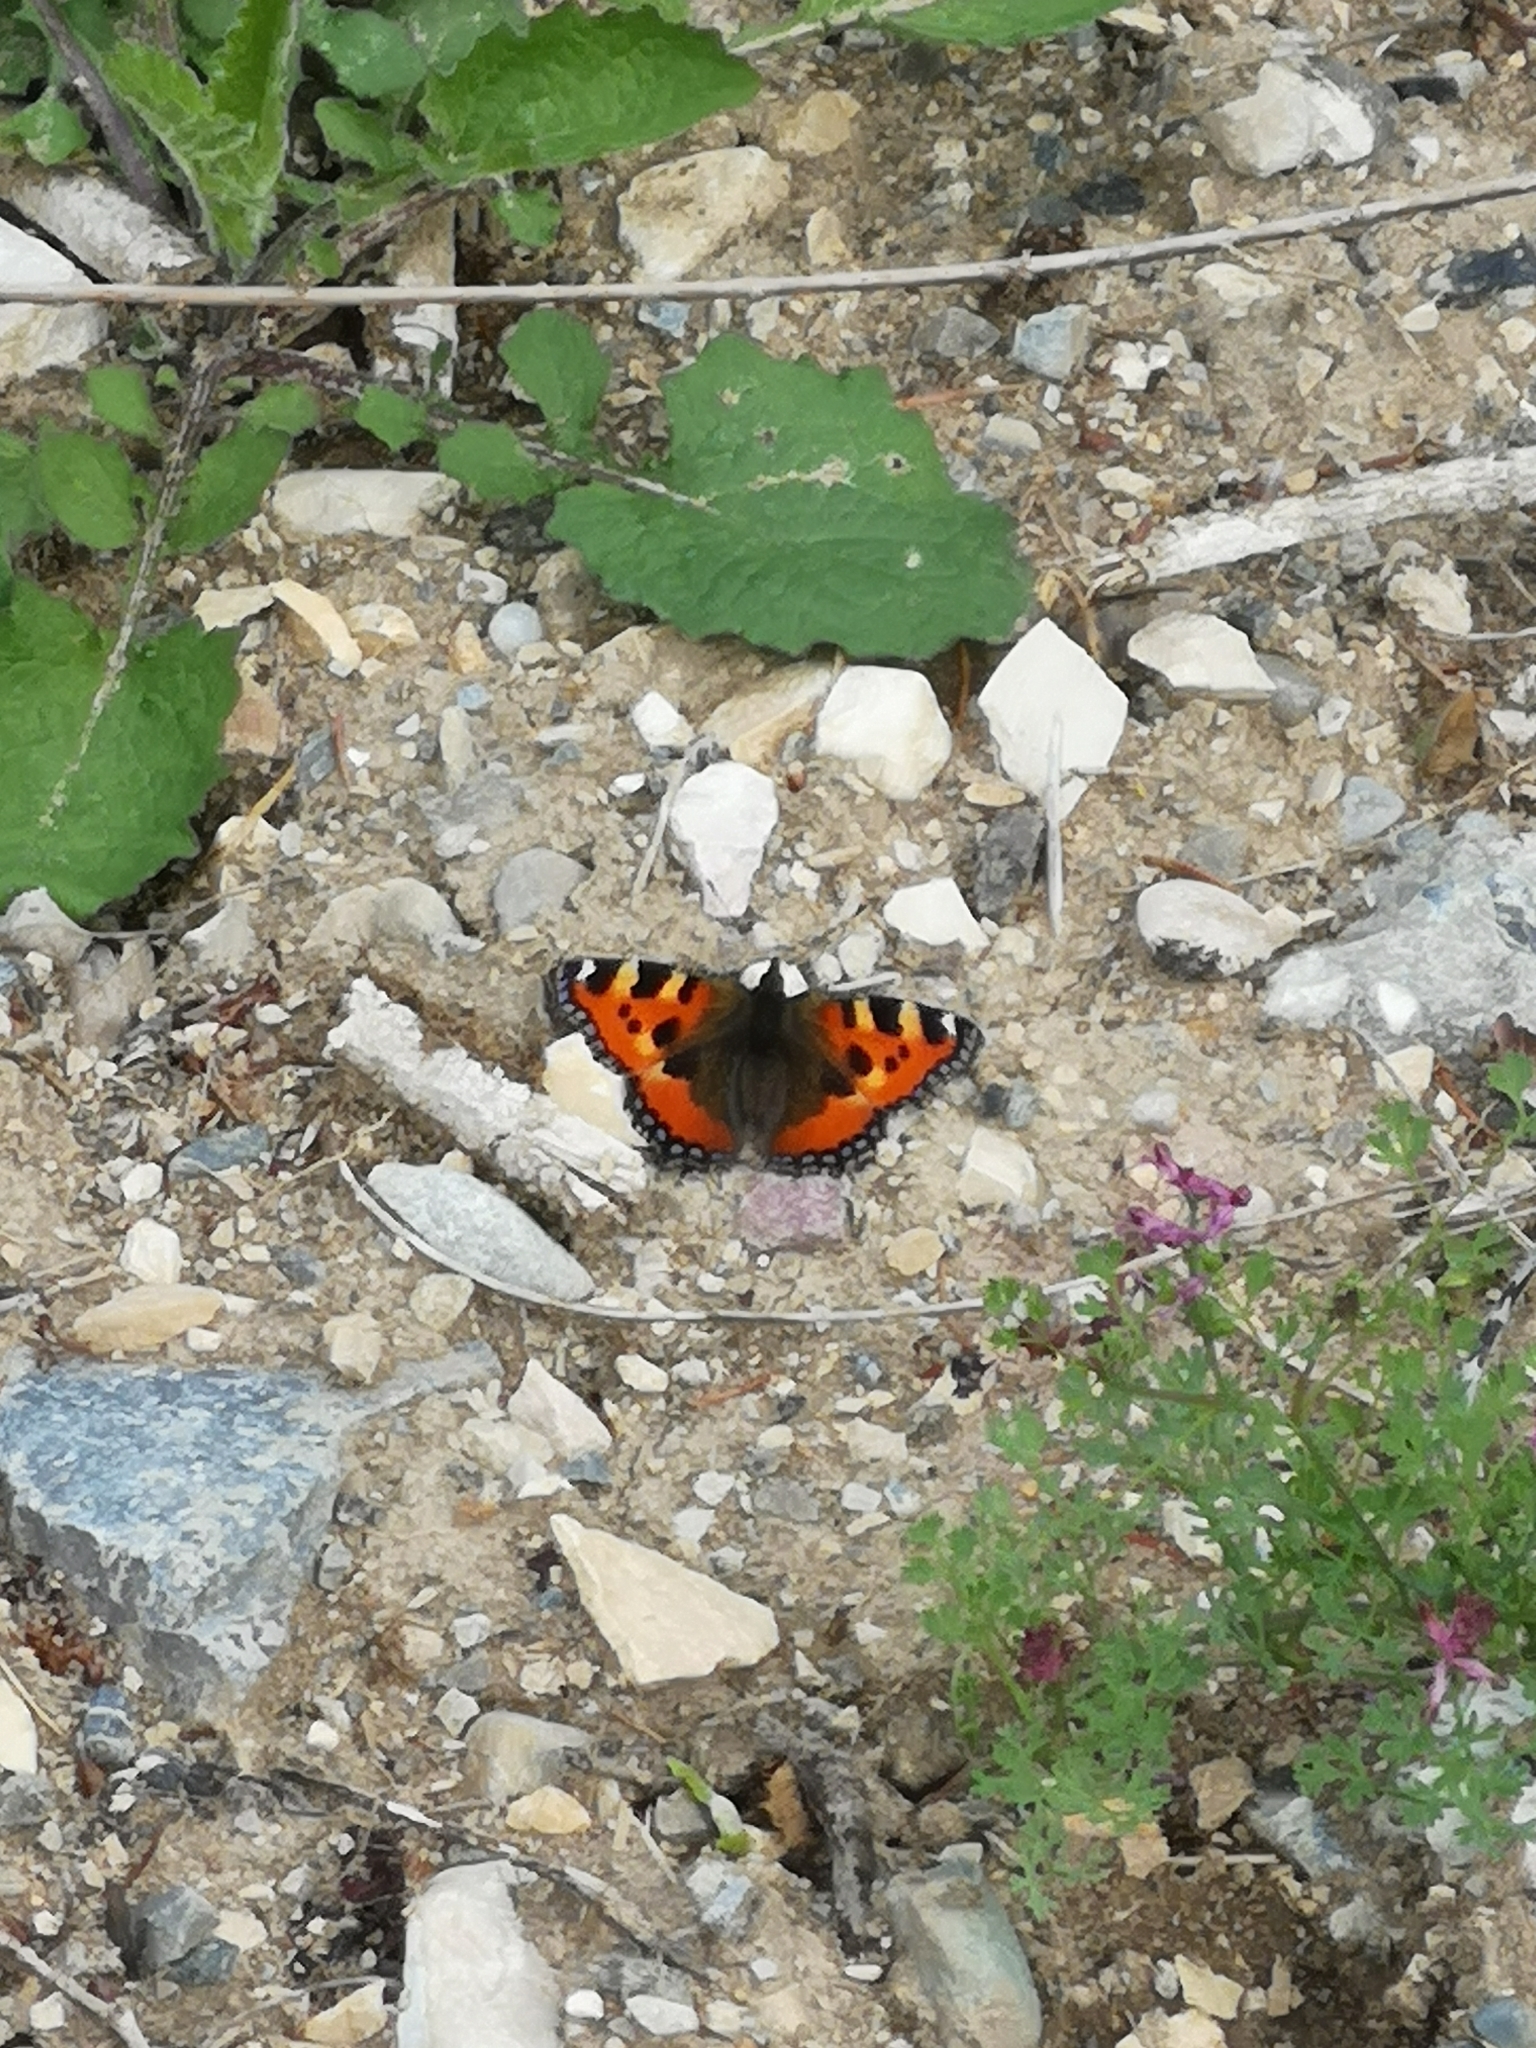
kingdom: Animalia
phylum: Arthropoda
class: Insecta
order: Lepidoptera
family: Nymphalidae
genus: Aglais
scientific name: Aglais urticae
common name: Small tortoiseshell
